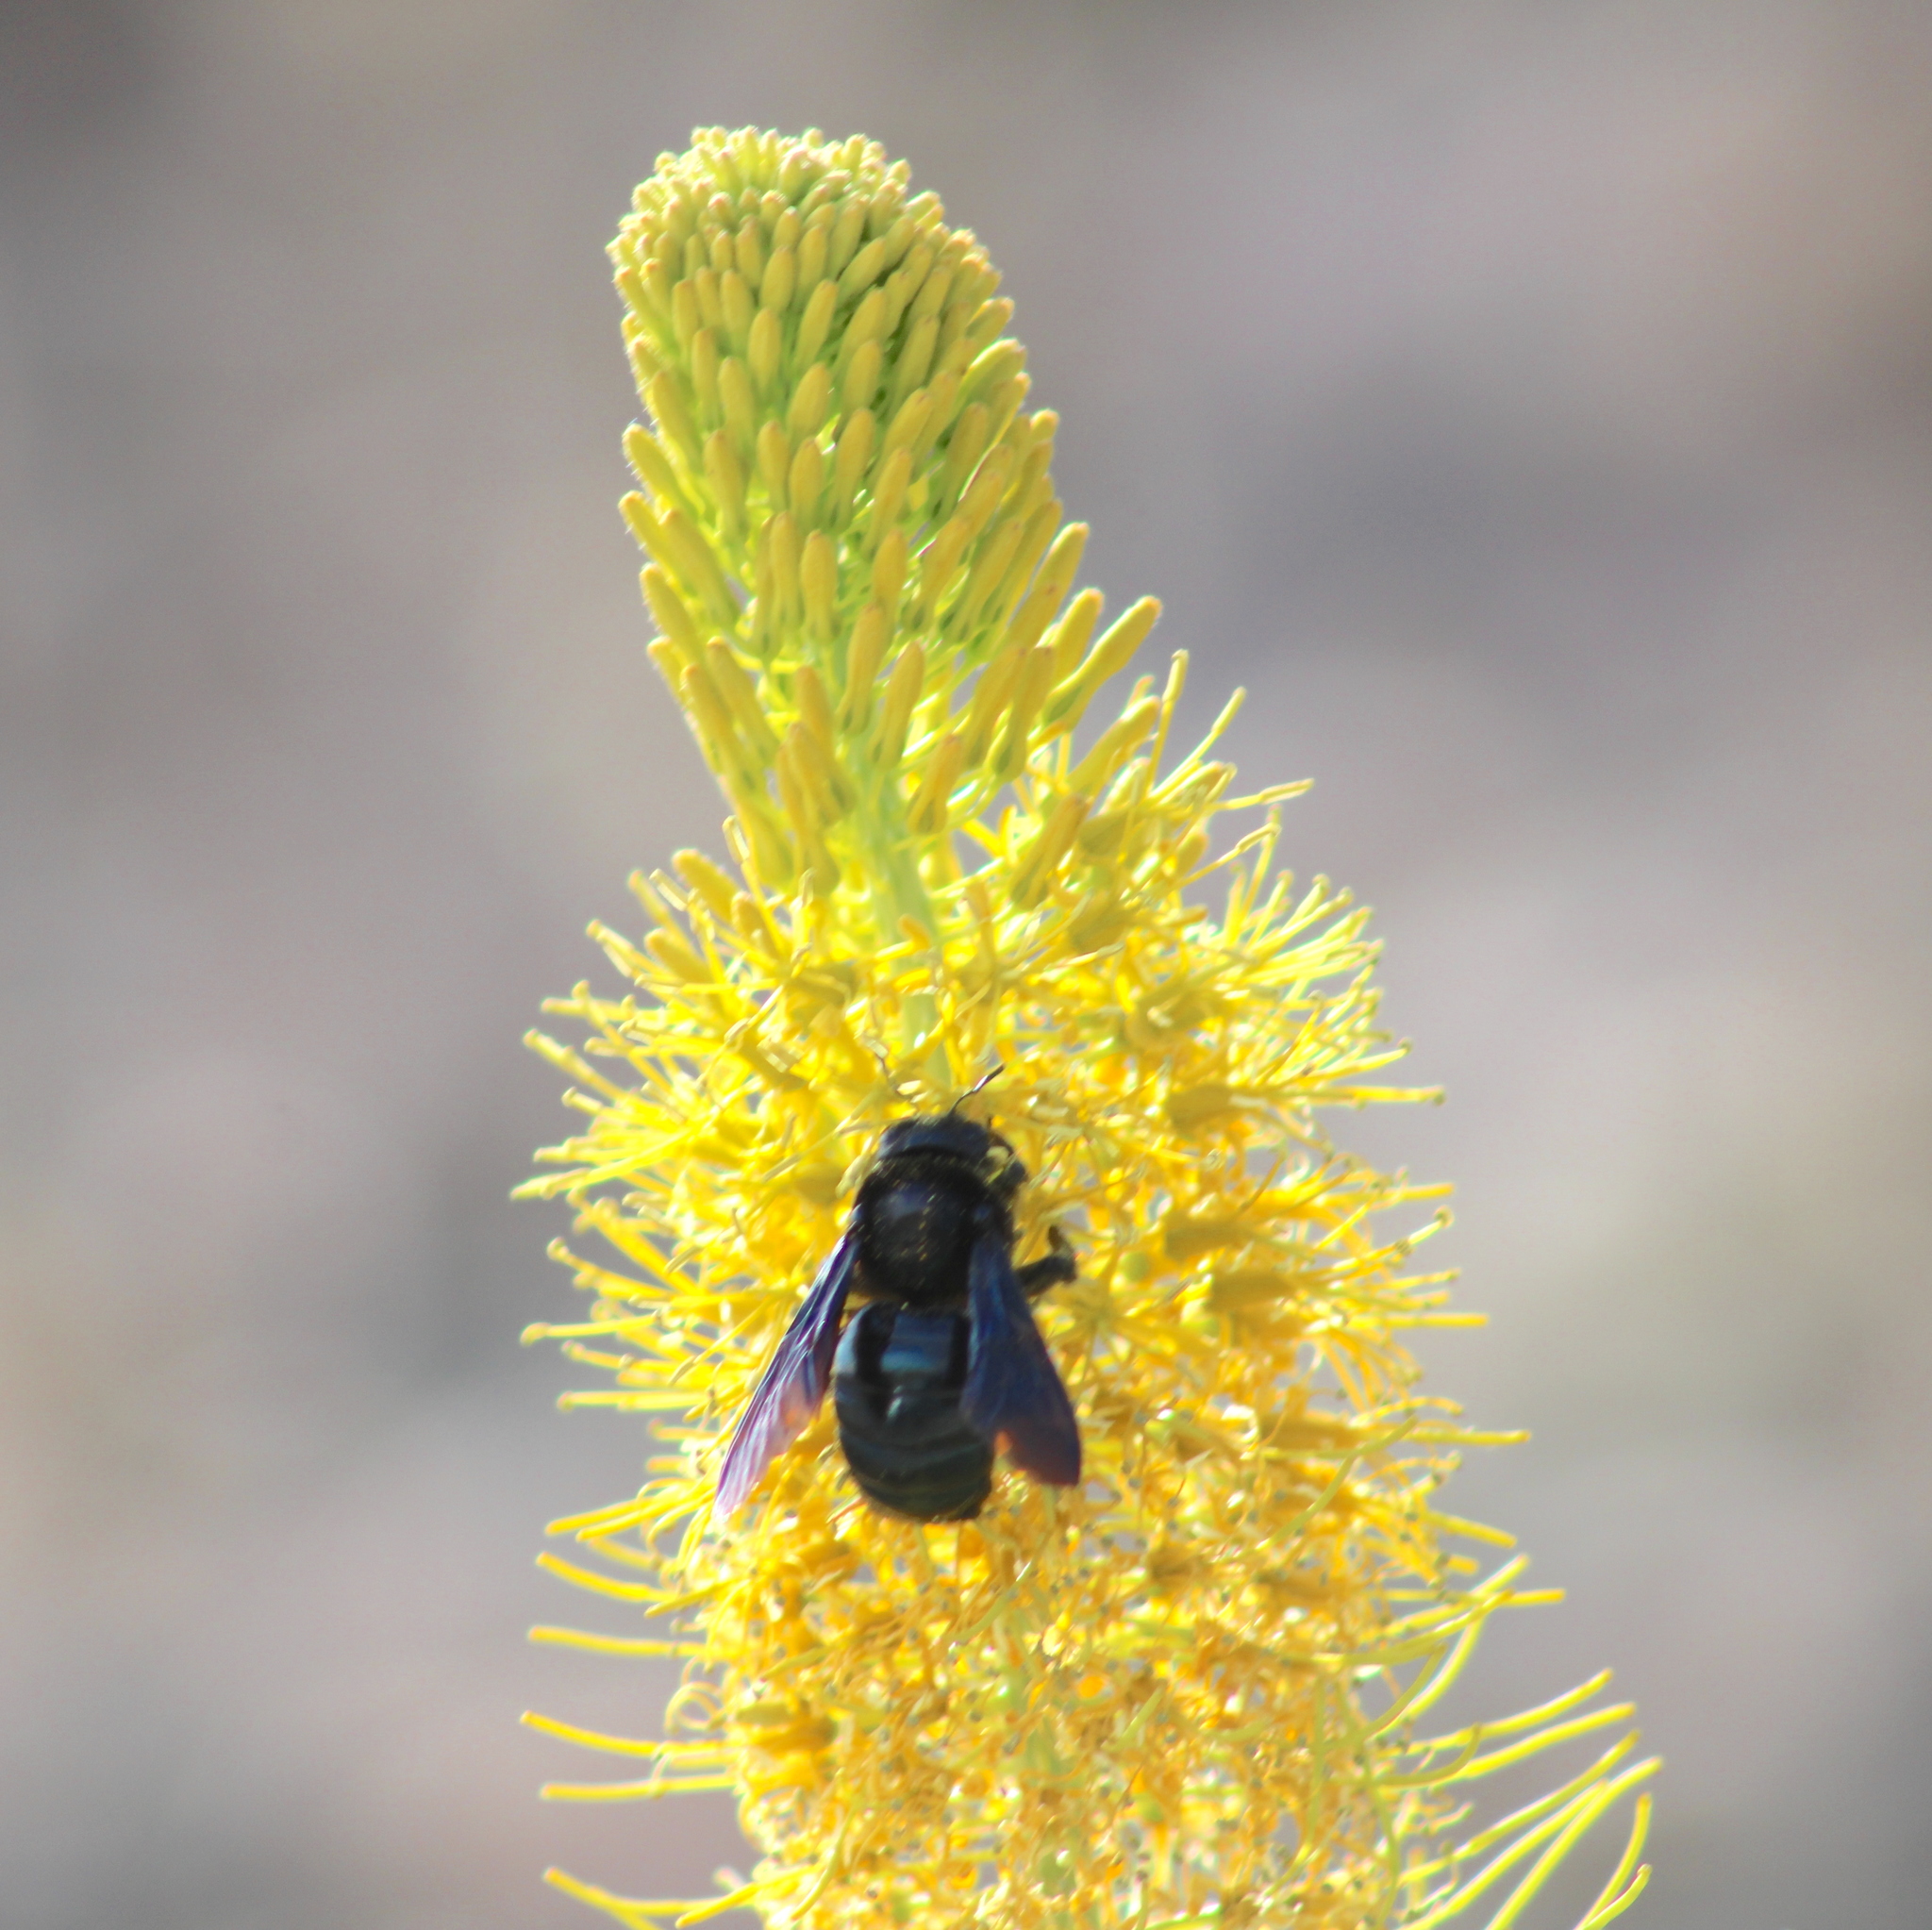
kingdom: Animalia
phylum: Arthropoda
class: Insecta
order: Hymenoptera
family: Apidae
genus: Xylocopa
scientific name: Xylocopa californica
